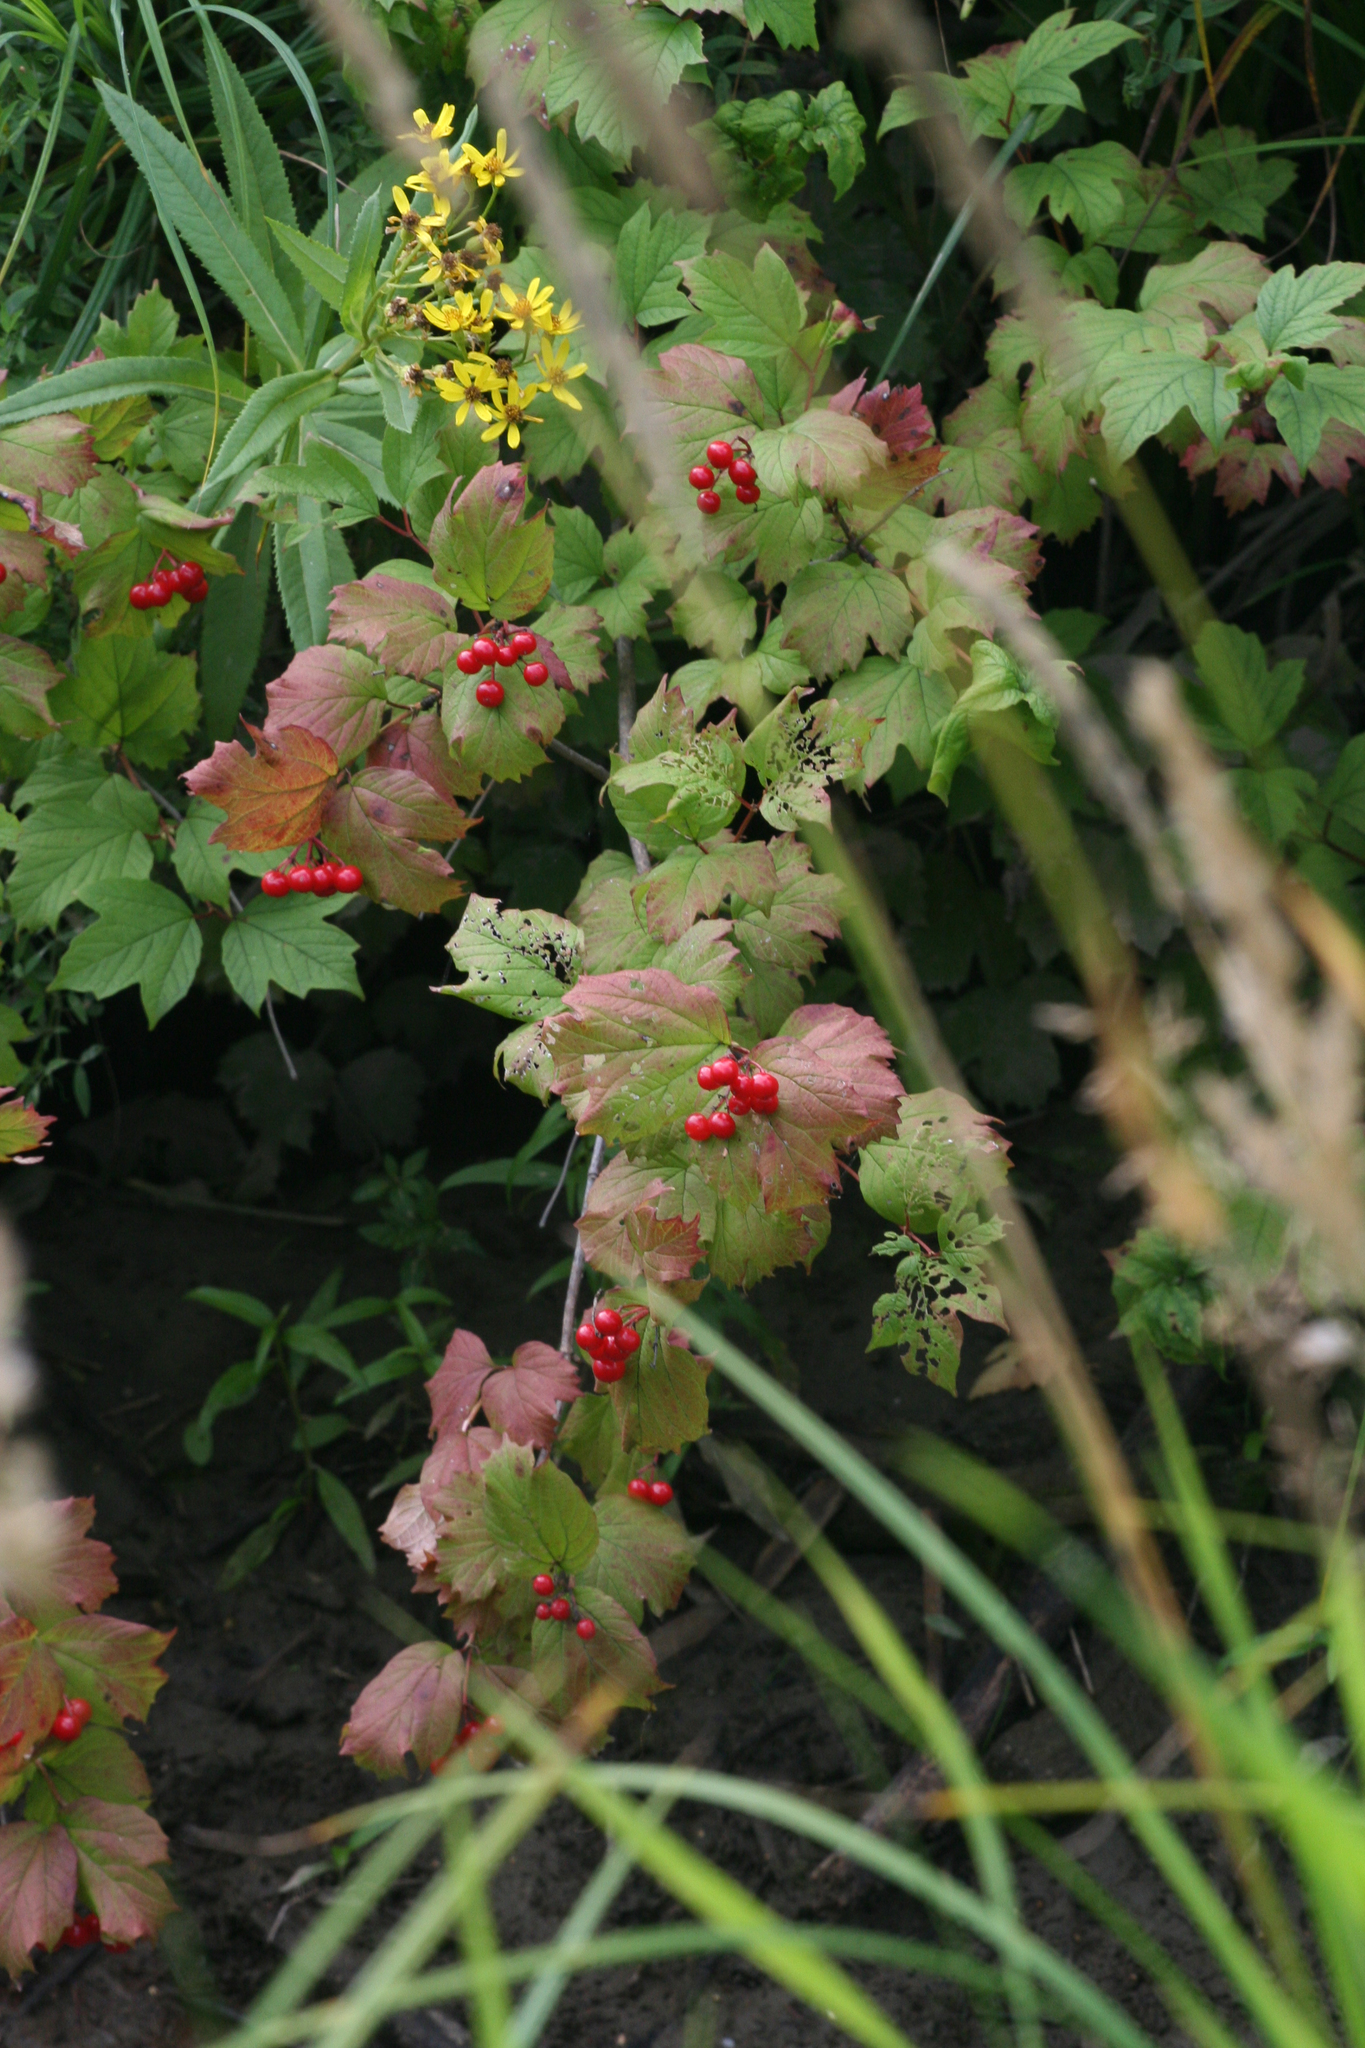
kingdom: Plantae
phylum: Tracheophyta
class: Magnoliopsida
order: Dipsacales
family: Viburnaceae
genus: Viburnum
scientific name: Viburnum opulus
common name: Guelder-rose
